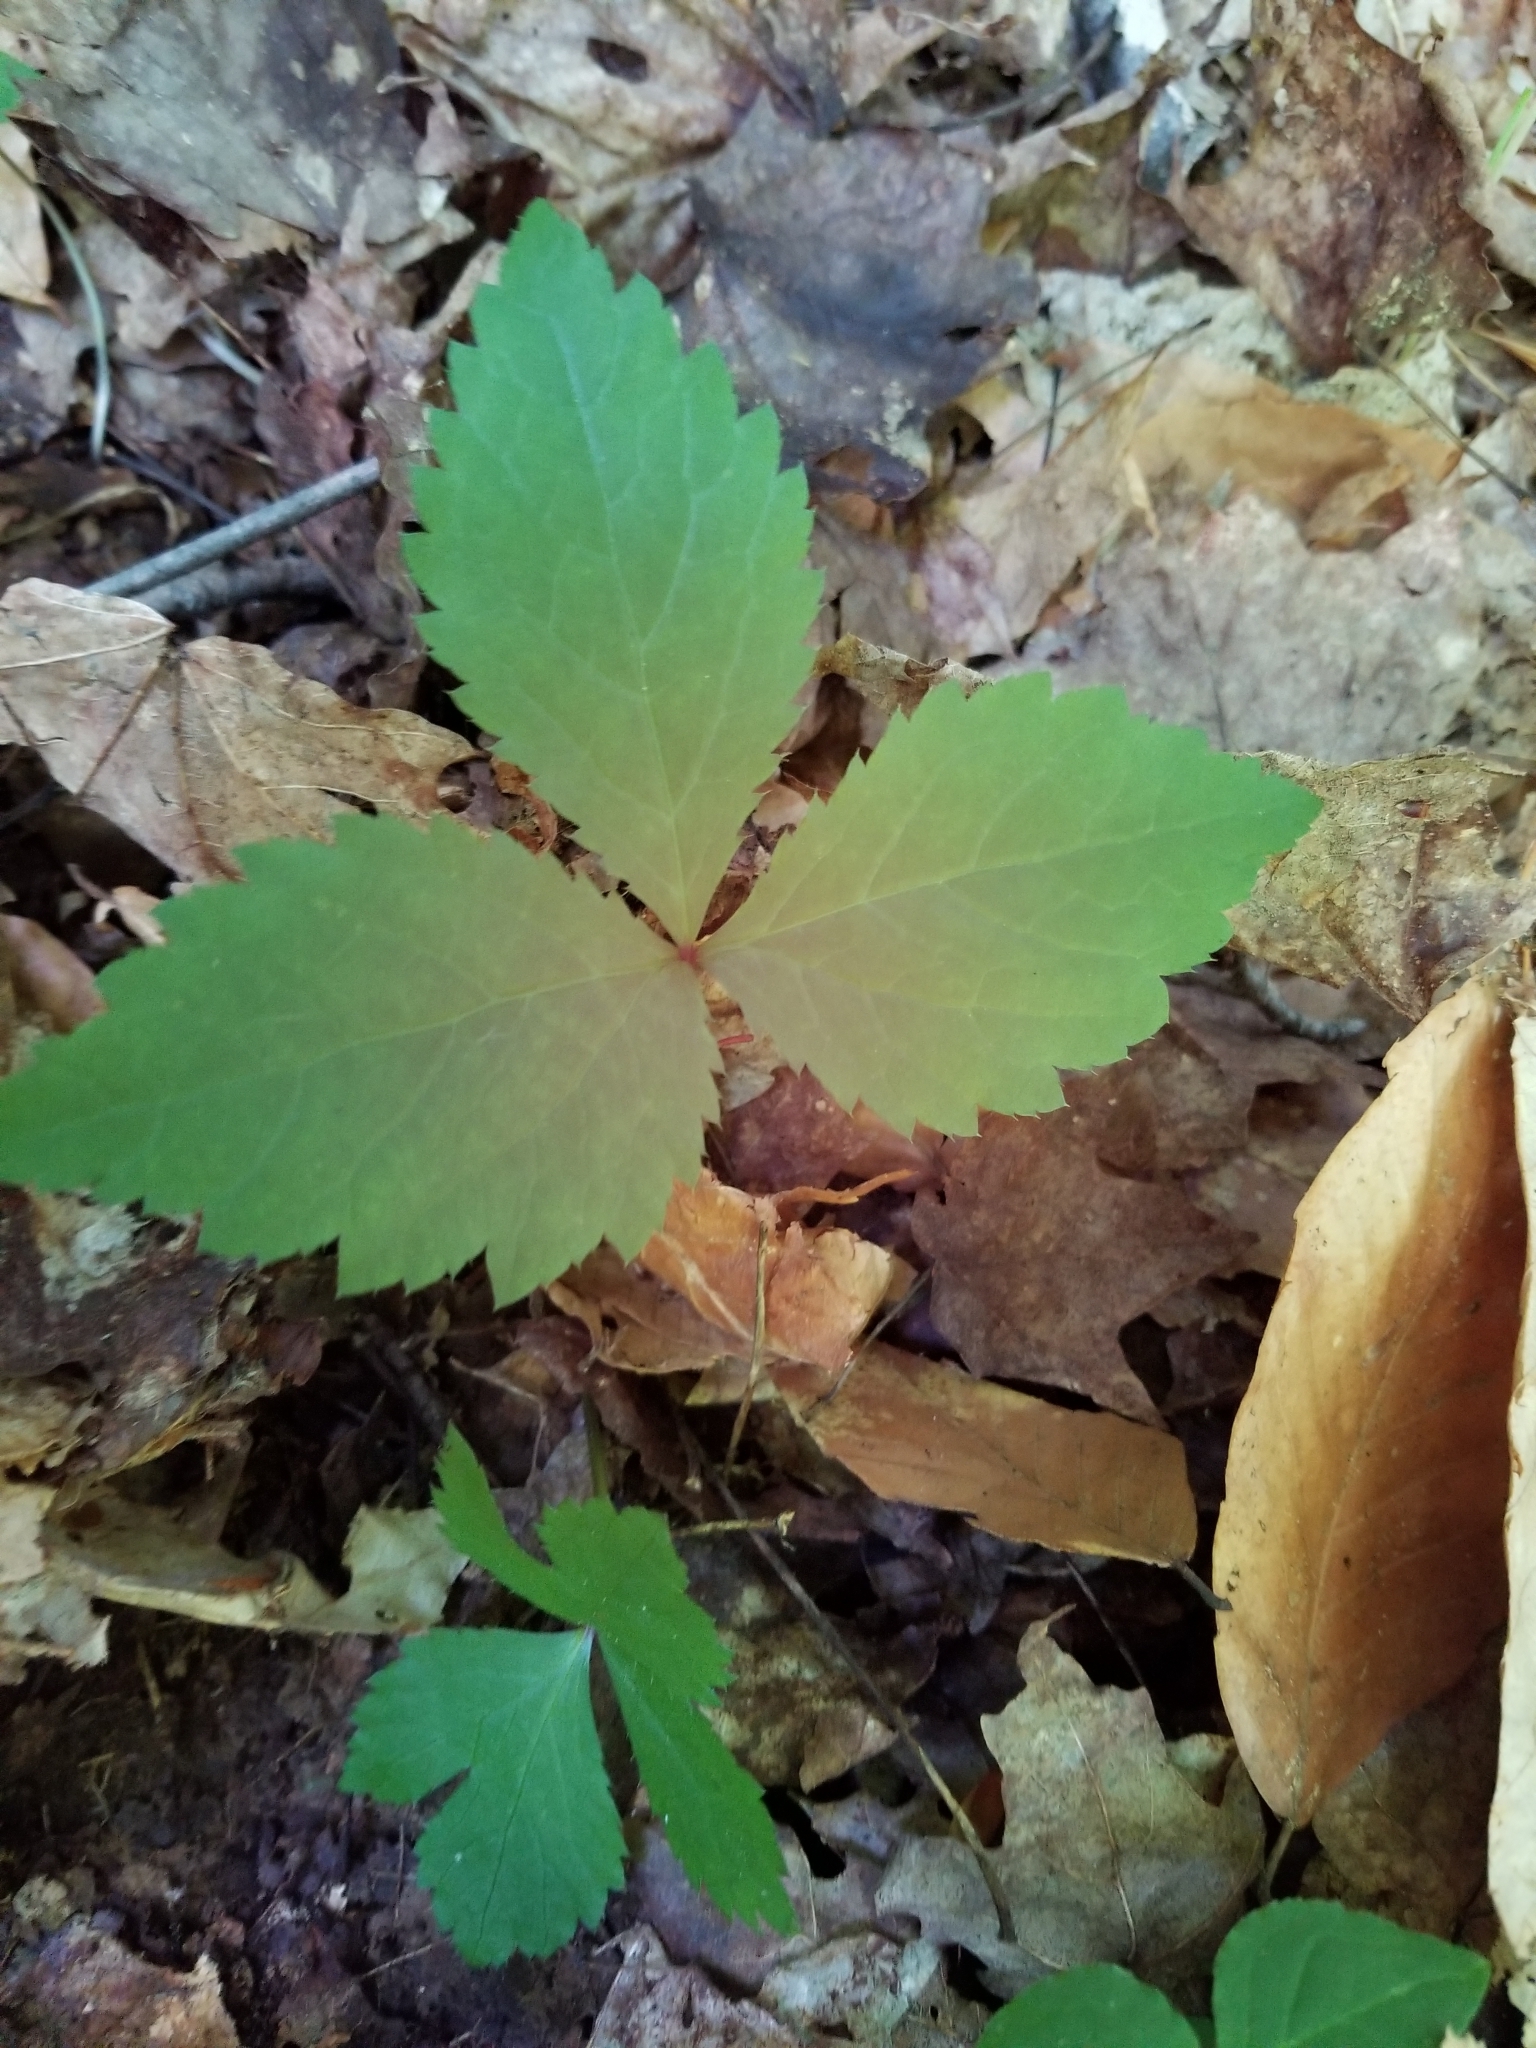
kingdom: Plantae
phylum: Tracheophyta
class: Magnoliopsida
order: Rosales
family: Rosaceae
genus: Rubus
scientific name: Rubus pubescens
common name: Dwarf raspberry
